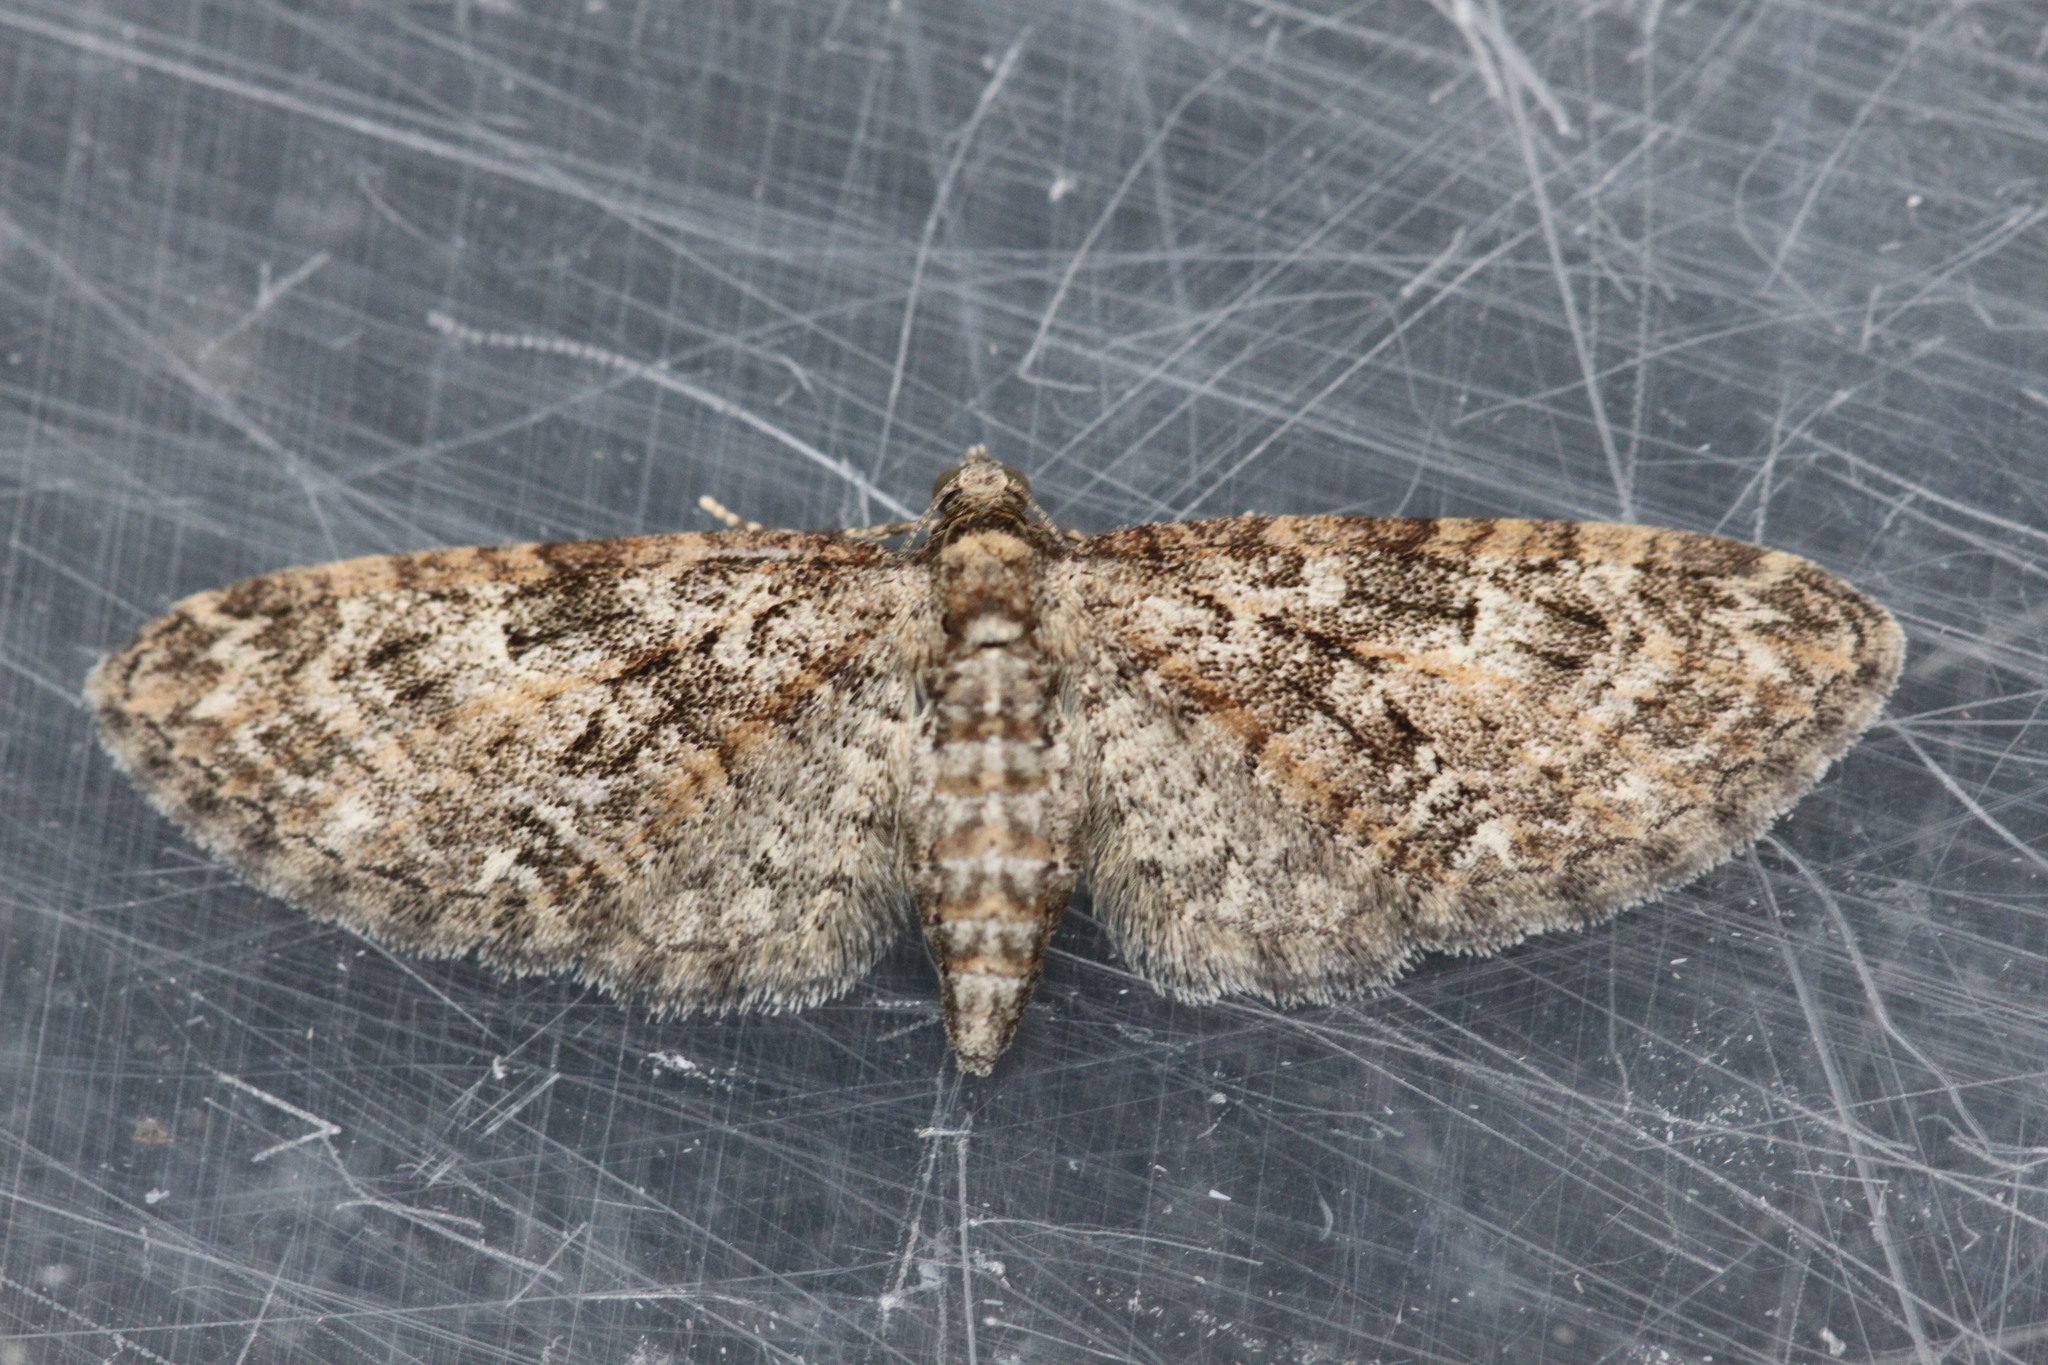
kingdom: Animalia
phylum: Arthropoda
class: Insecta
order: Lepidoptera
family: Geometridae
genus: Eupithecia
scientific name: Eupithecia abbreviata
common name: Brindled pug
